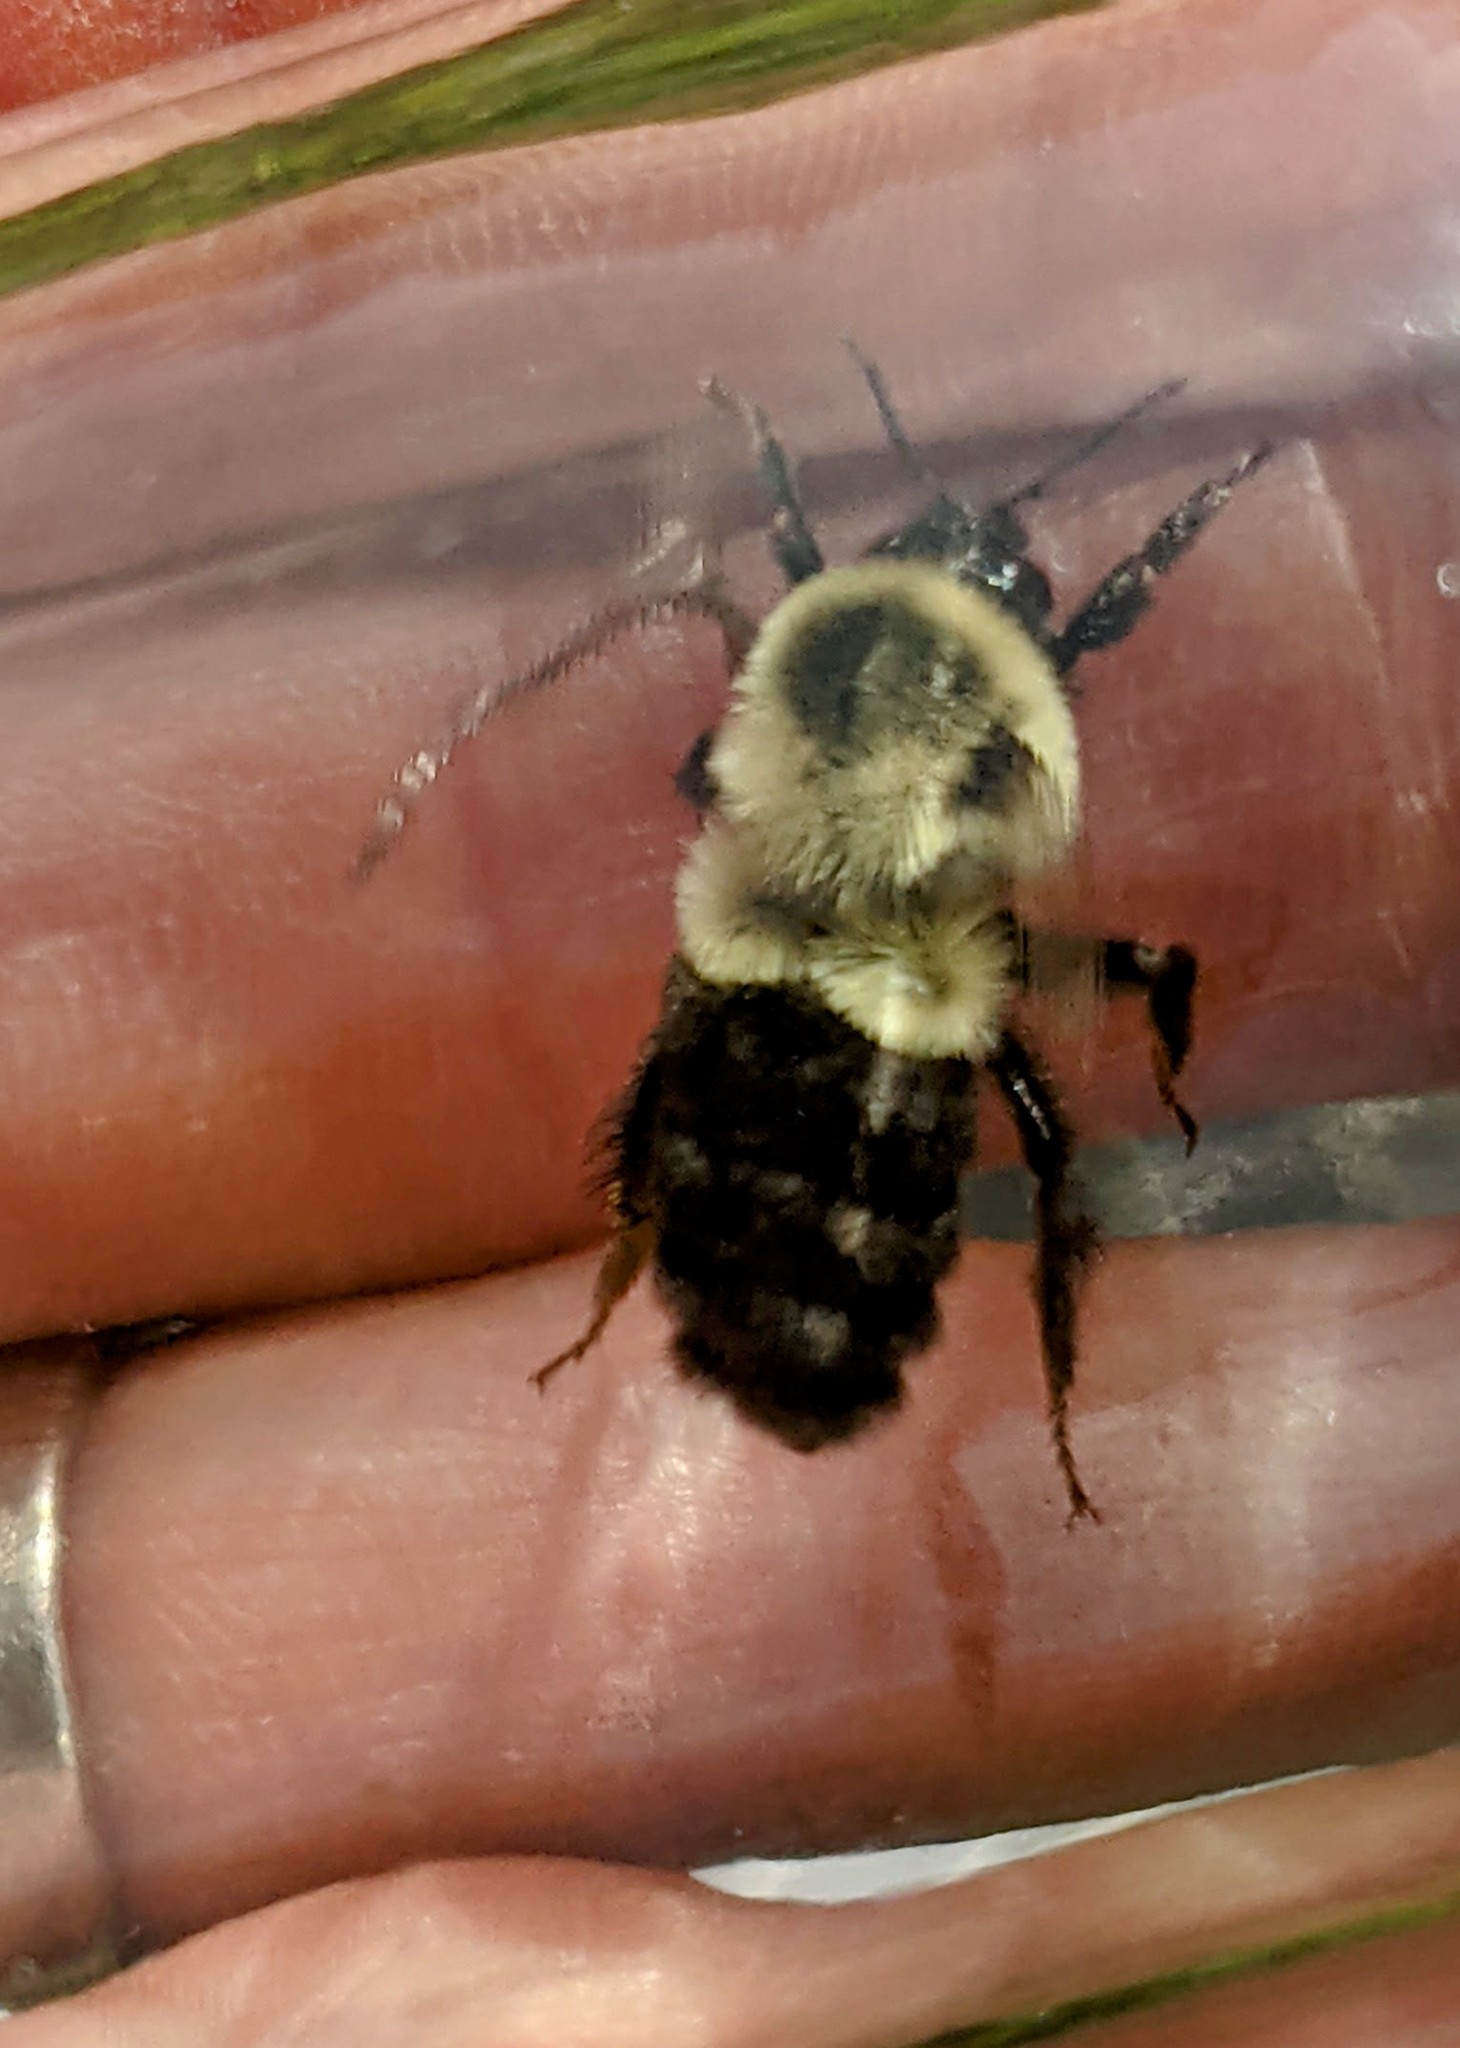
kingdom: Animalia
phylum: Arthropoda
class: Insecta
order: Hymenoptera
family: Apidae
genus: Bombus
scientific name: Bombus impatiens
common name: Common eastern bumble bee
